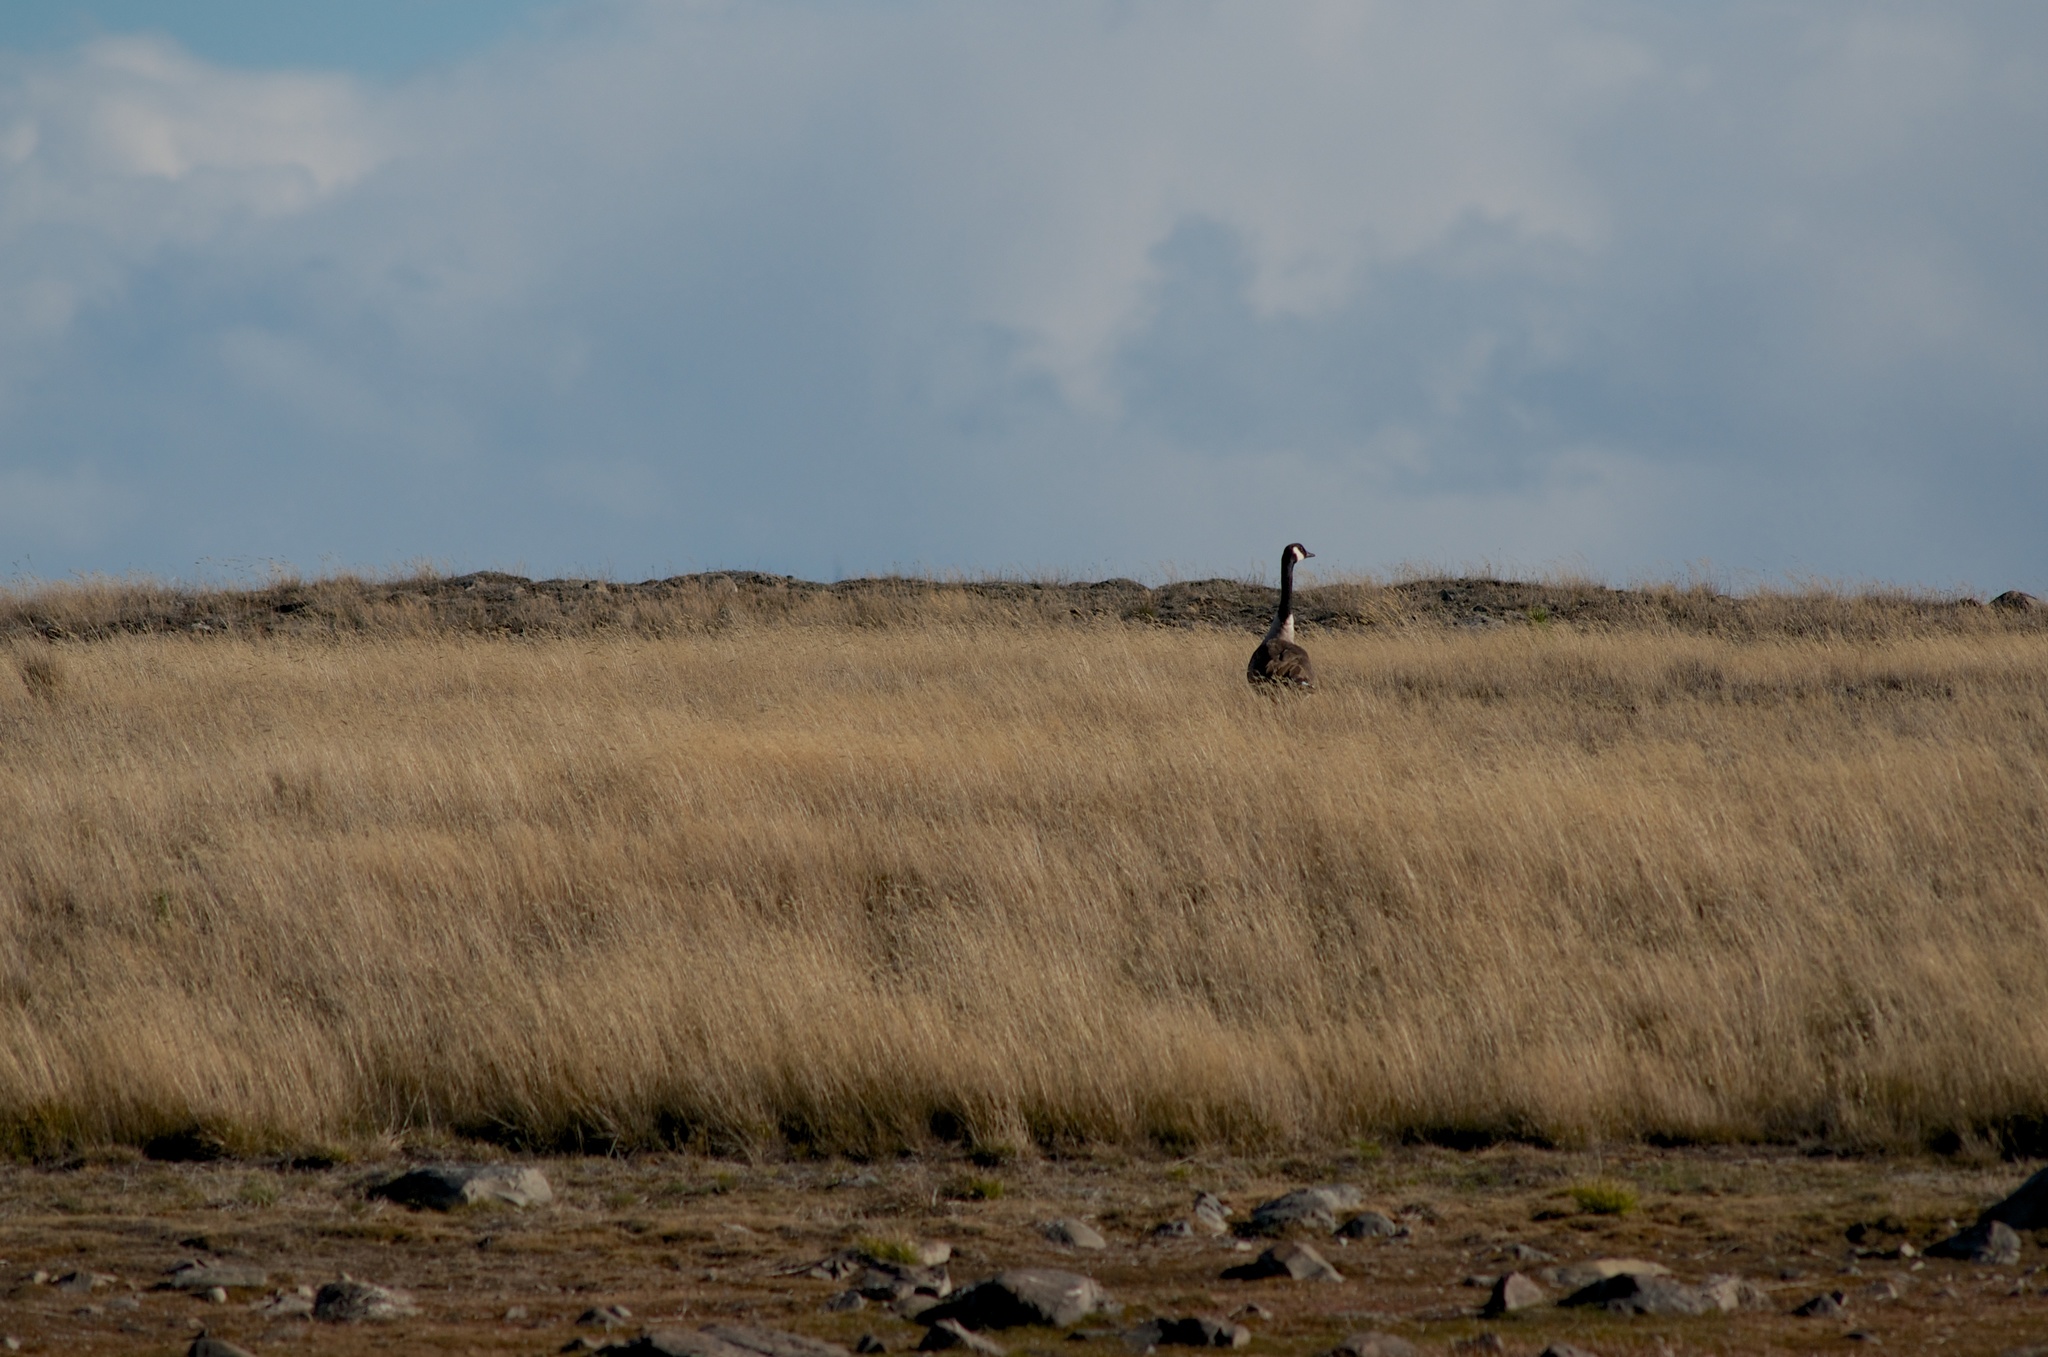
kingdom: Animalia
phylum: Chordata
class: Aves
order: Anseriformes
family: Anatidae
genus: Branta
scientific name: Branta canadensis
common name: Canada goose
